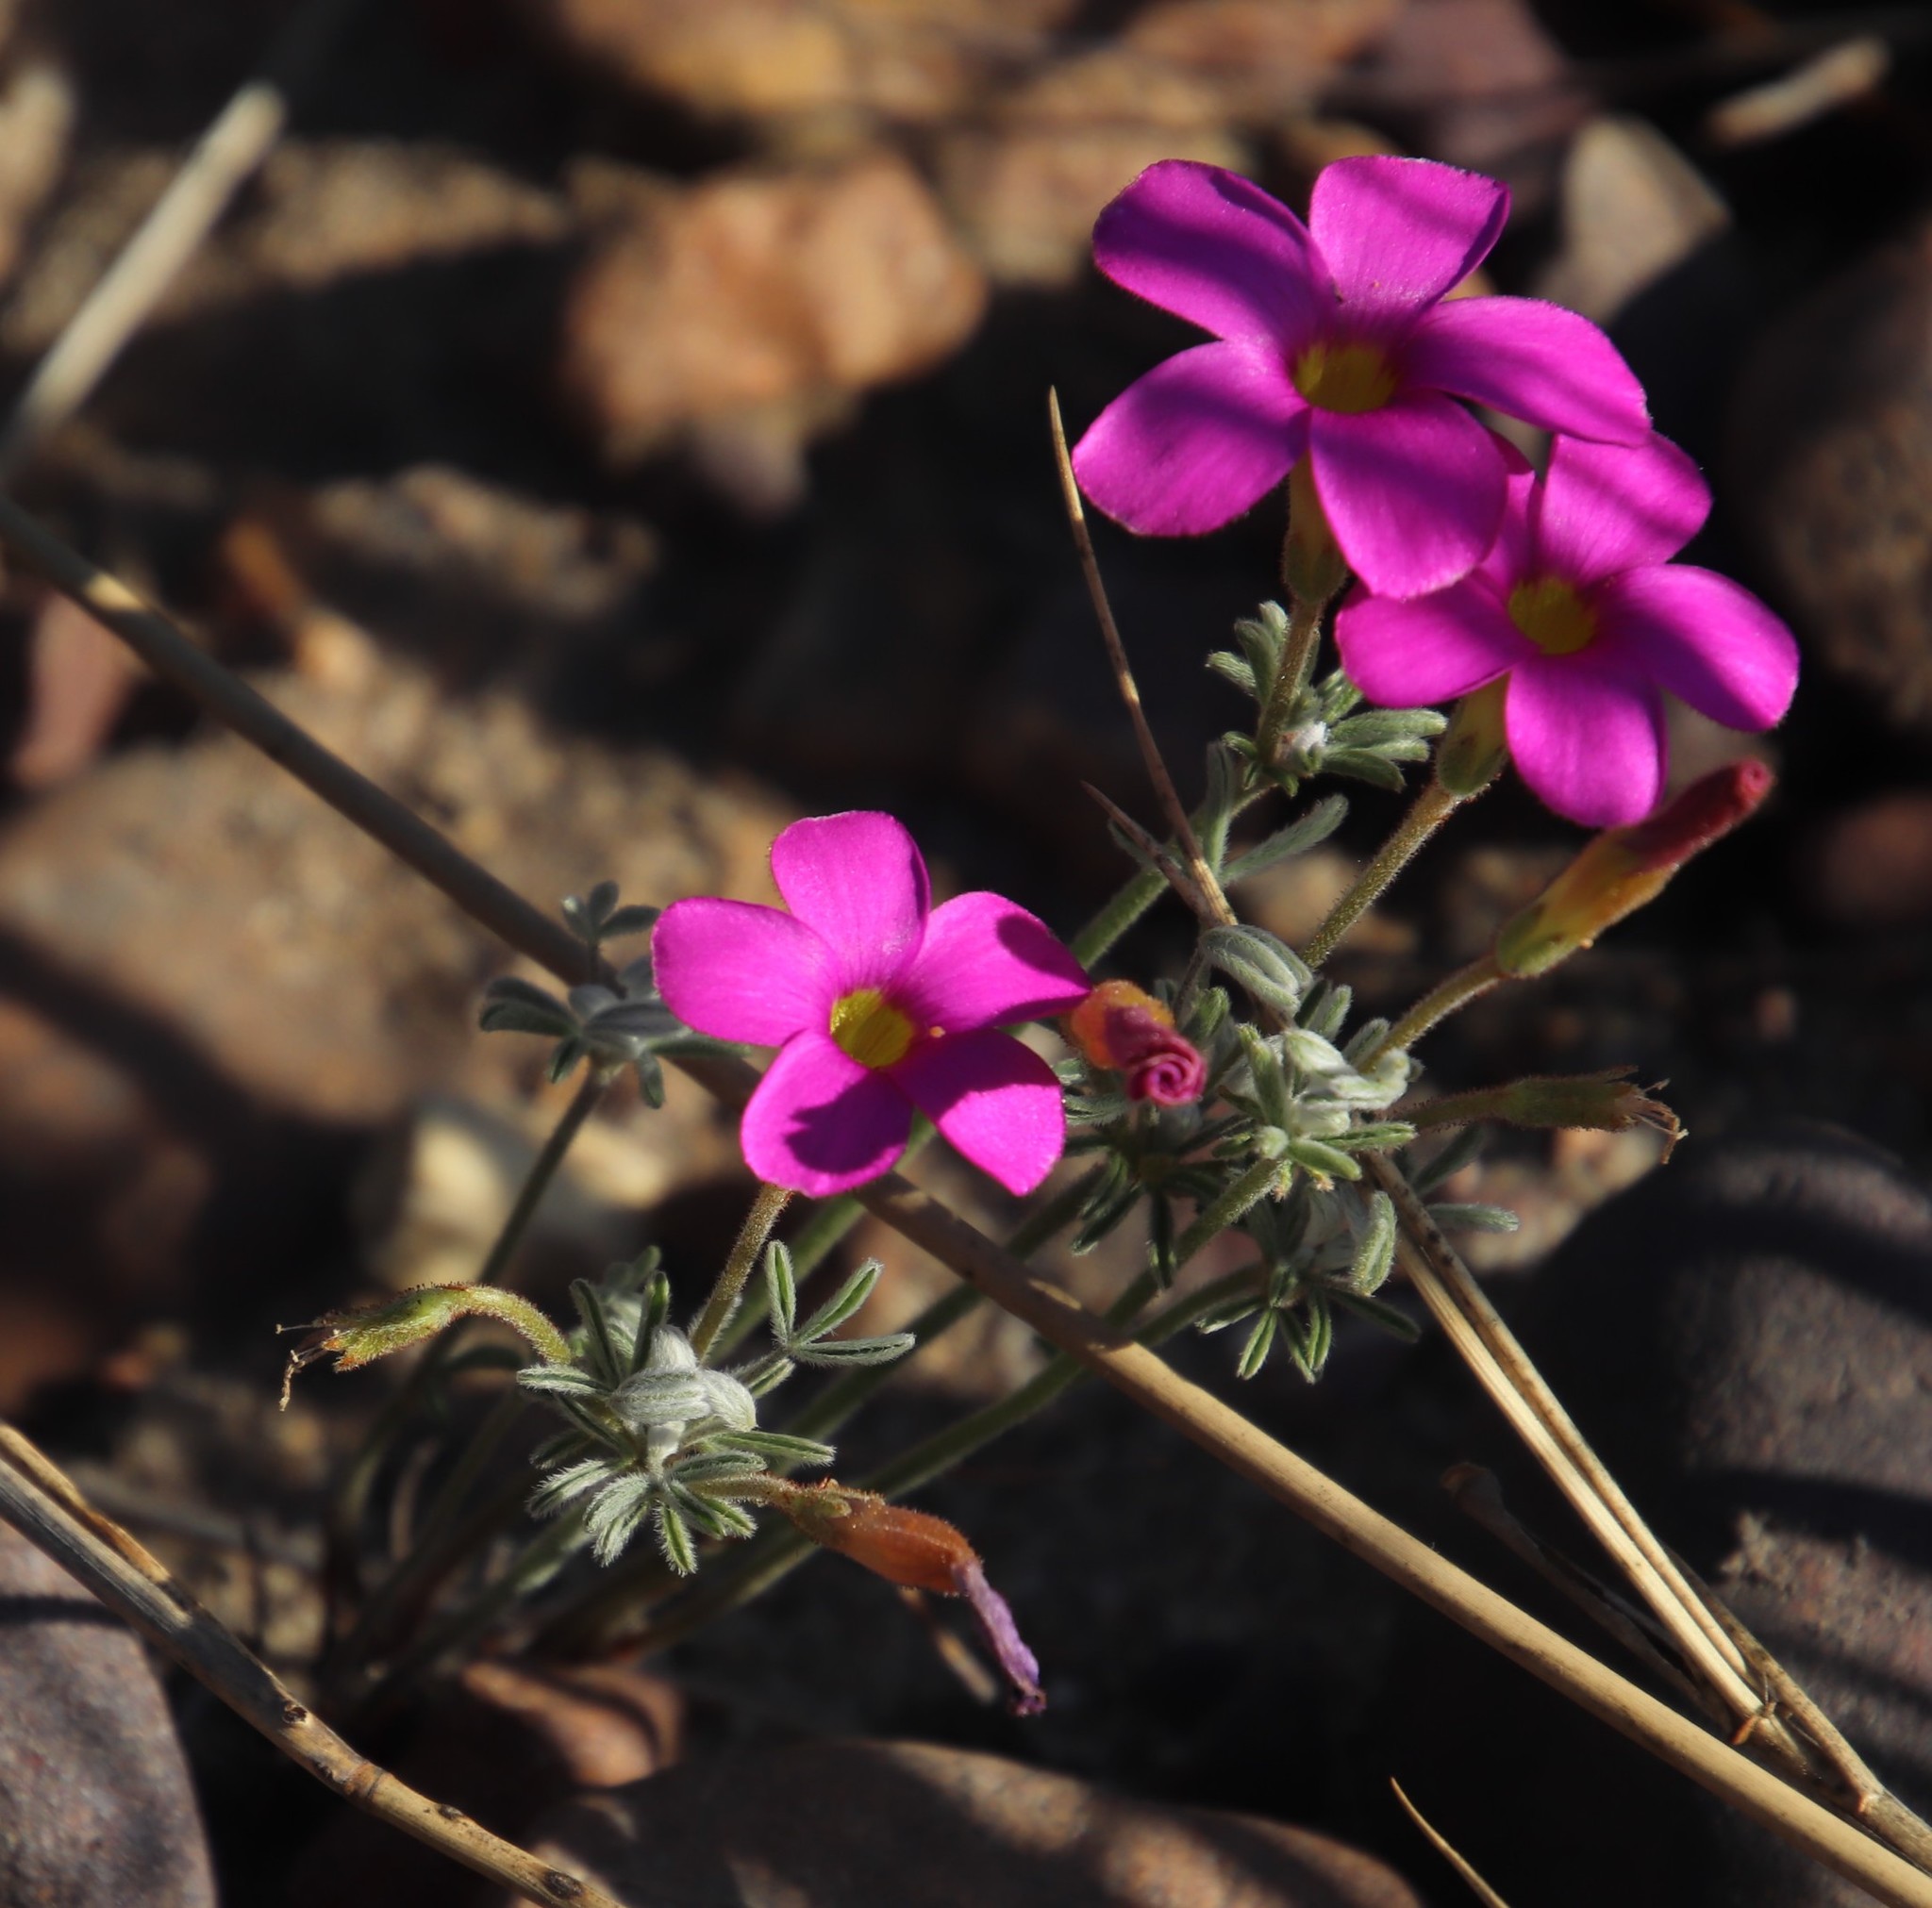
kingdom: Plantae
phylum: Tracheophyta
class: Magnoliopsida
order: Oxalidales
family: Oxalidaceae
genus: Oxalis
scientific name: Oxalis droseroides
